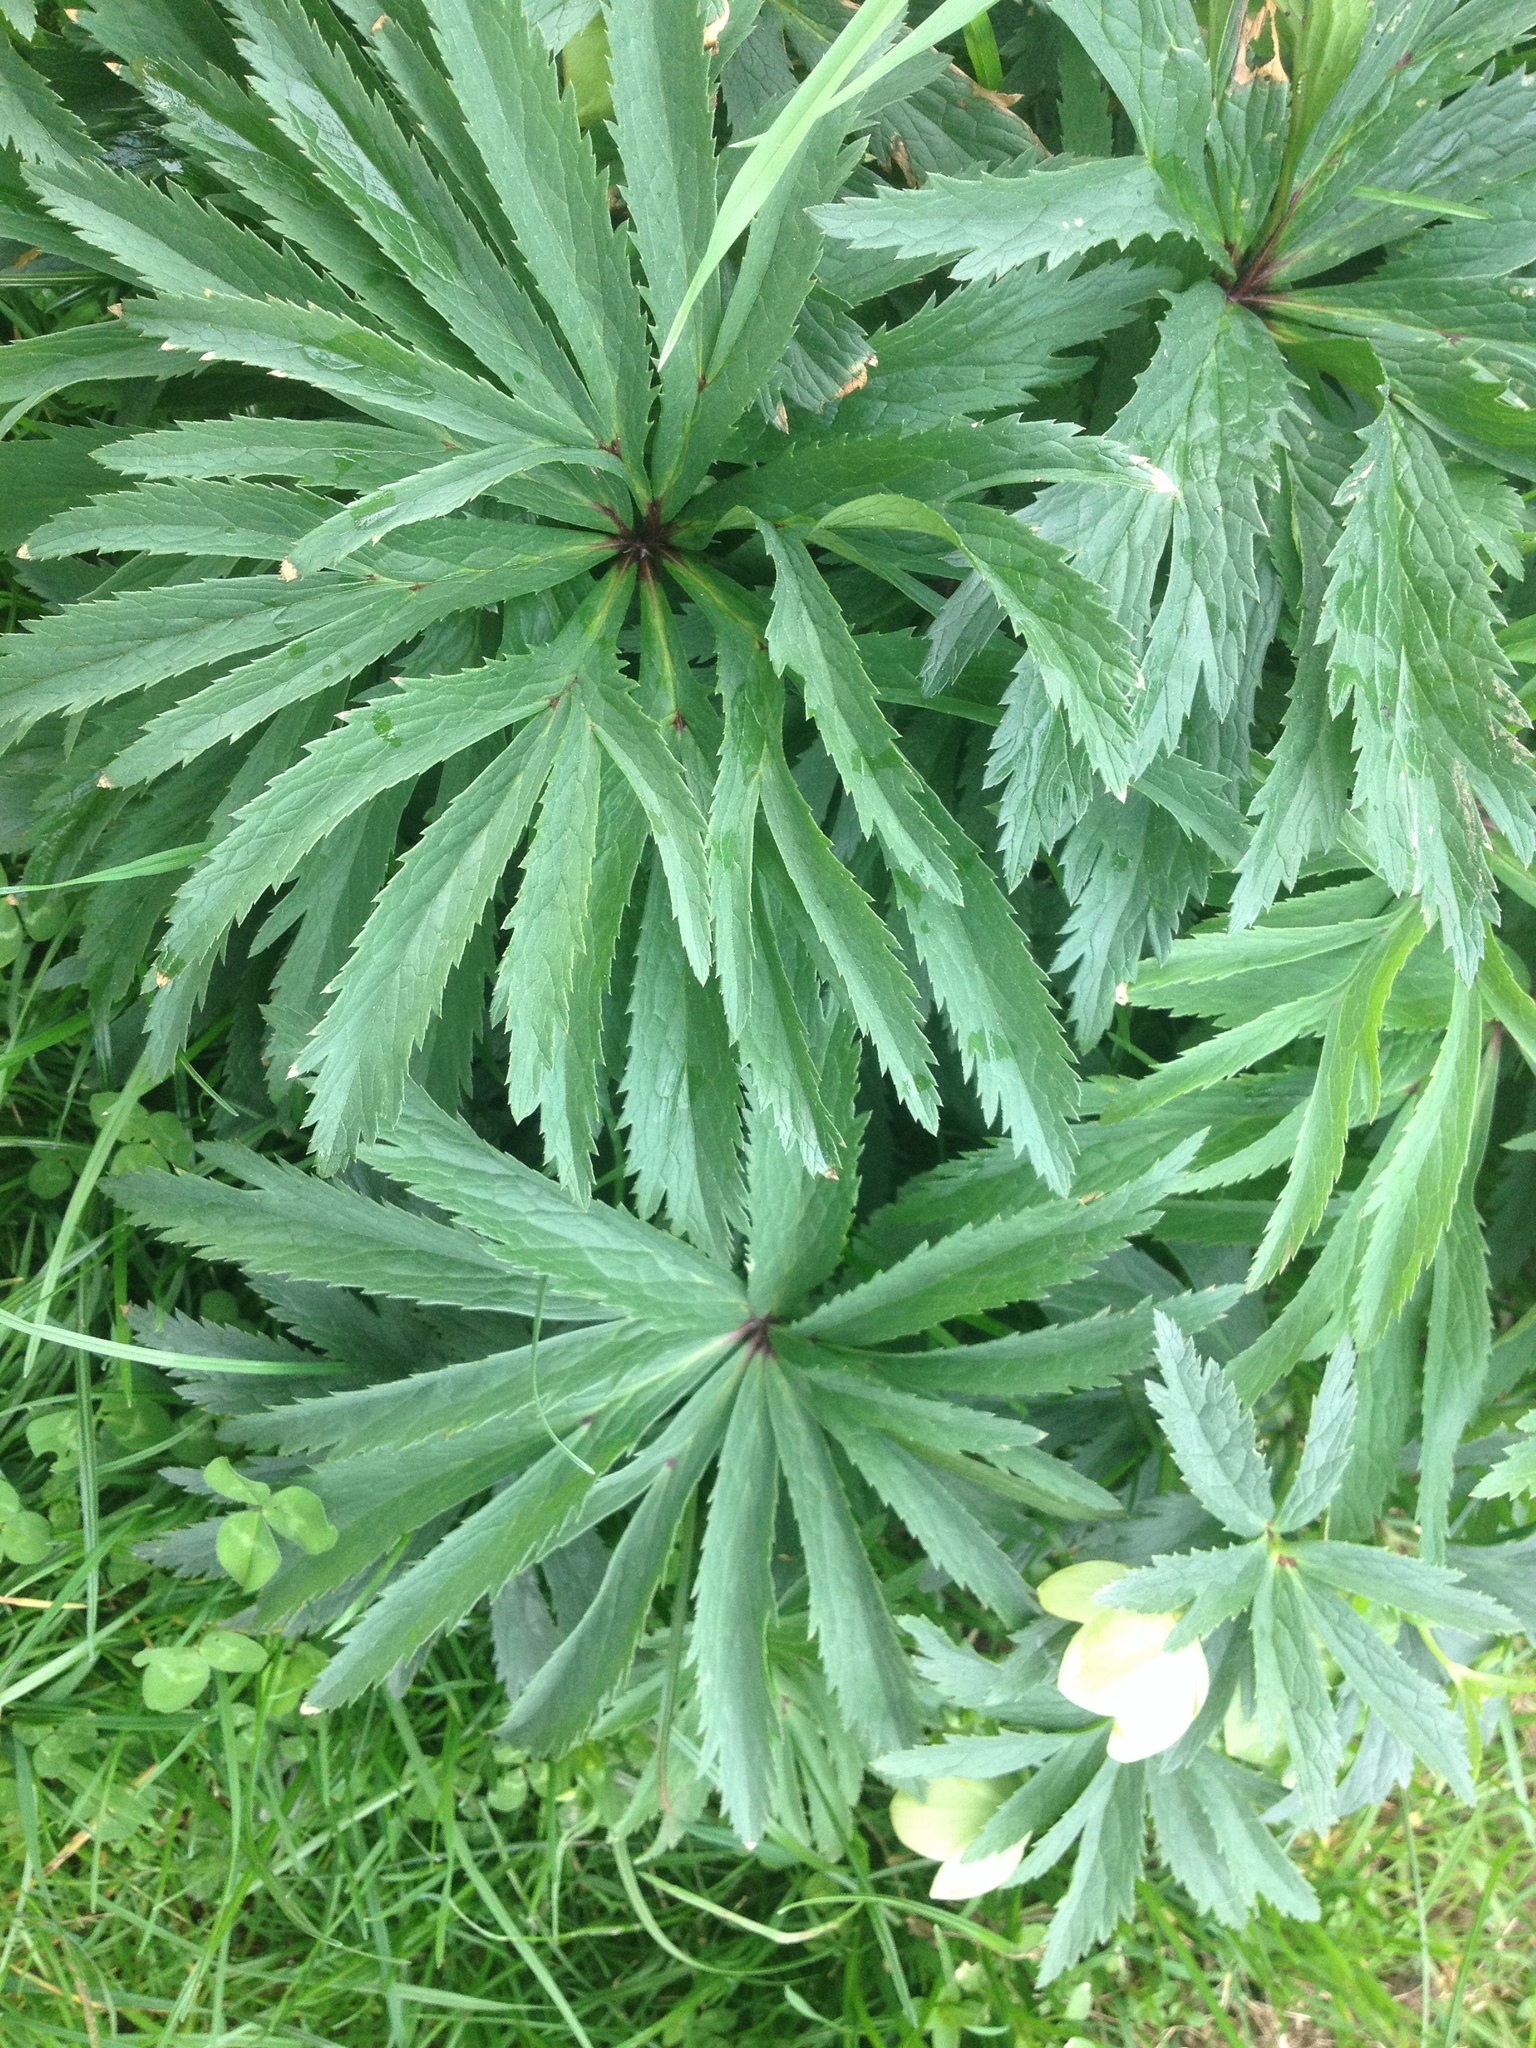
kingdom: Plantae
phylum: Tracheophyta
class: Magnoliopsida
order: Ranunculales
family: Ranunculaceae
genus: Helleborus
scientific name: Helleborus viridis
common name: Green hellebore
